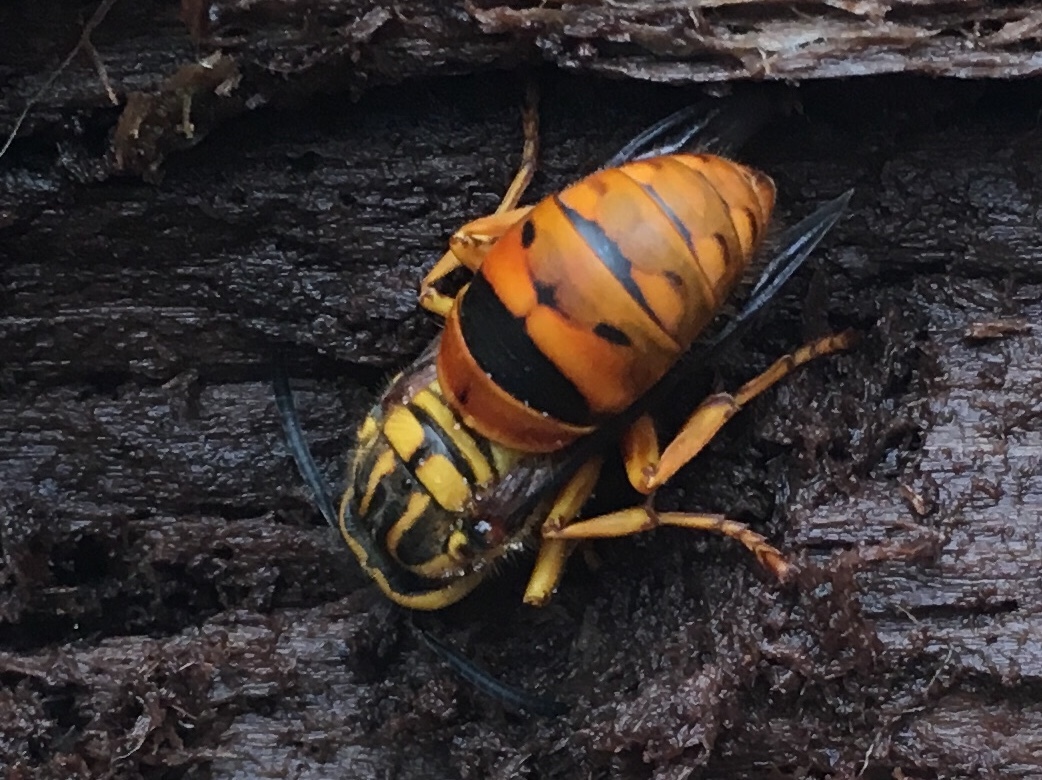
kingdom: Animalia
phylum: Arthropoda
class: Insecta
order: Hymenoptera
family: Vespidae
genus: Vespula
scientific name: Vespula squamosa
